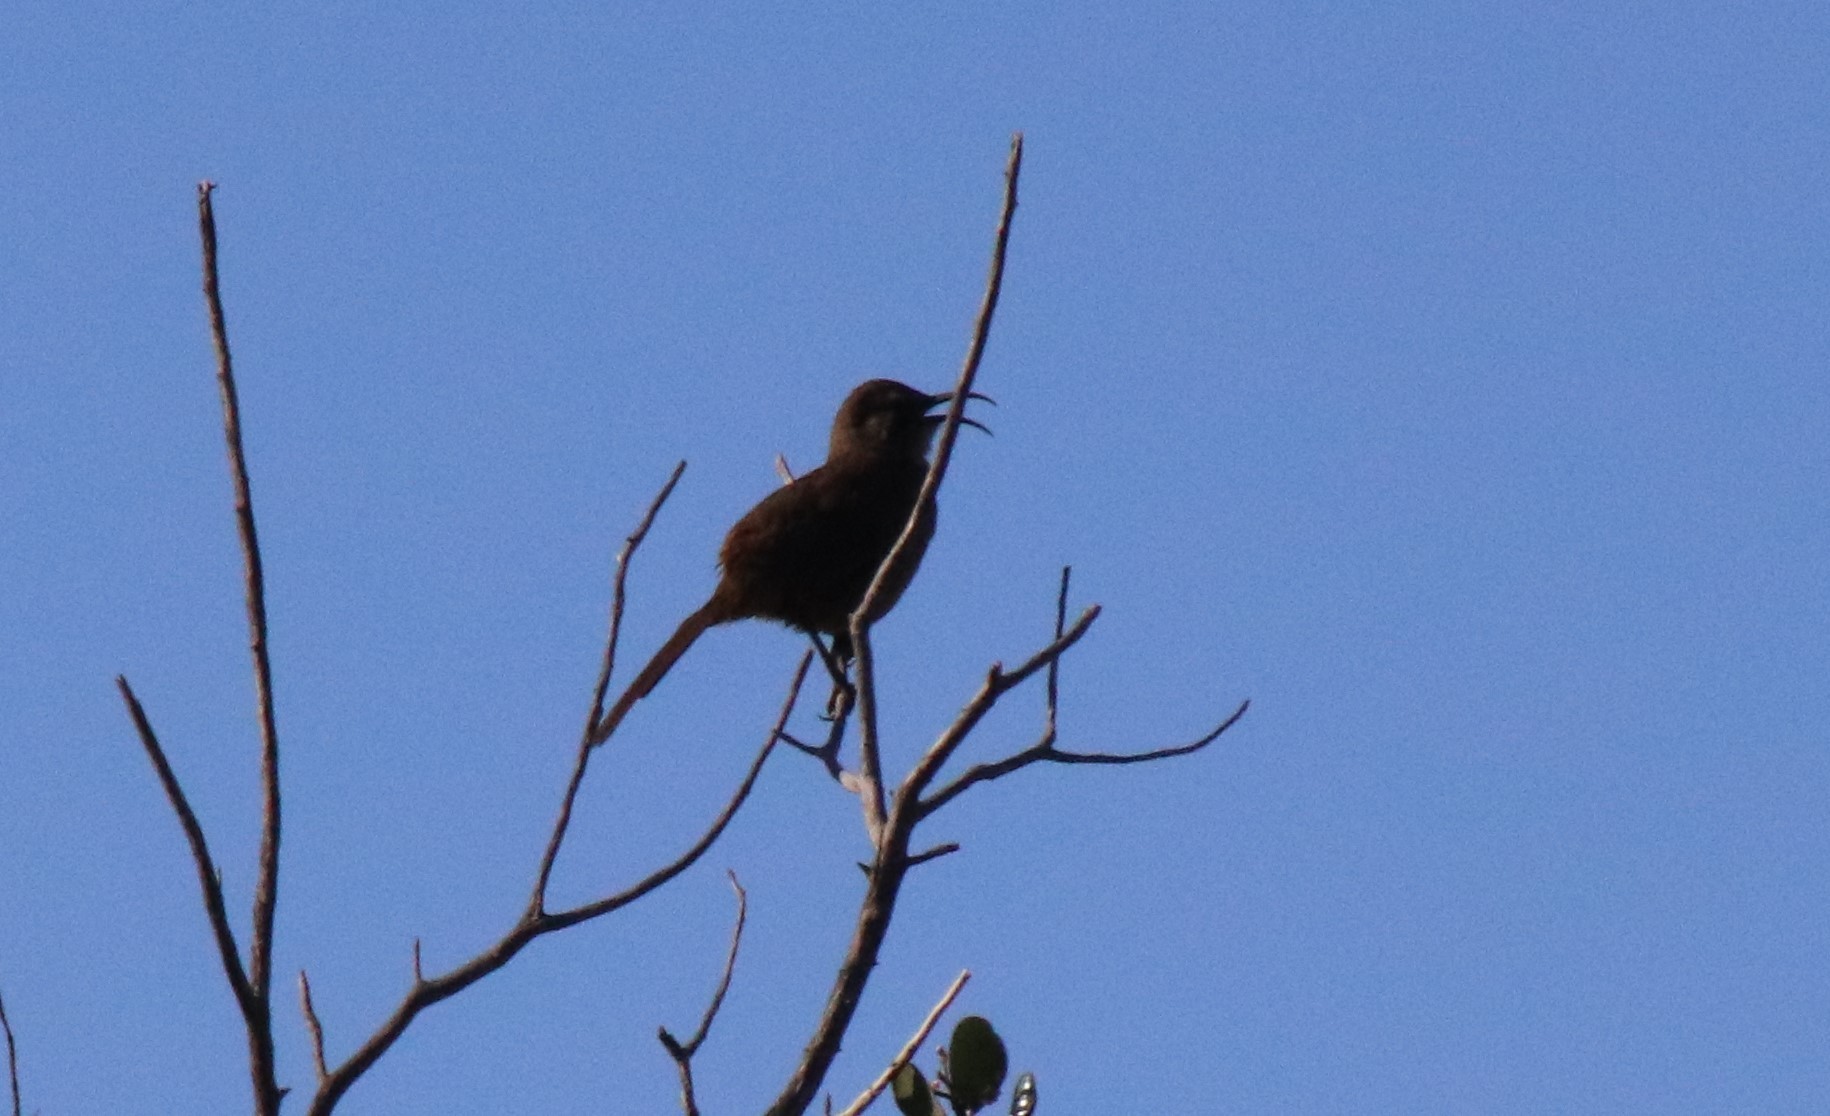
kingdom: Animalia
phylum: Chordata
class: Aves
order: Passeriformes
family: Mimidae
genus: Toxostoma
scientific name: Toxostoma redivivum
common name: California thrasher
